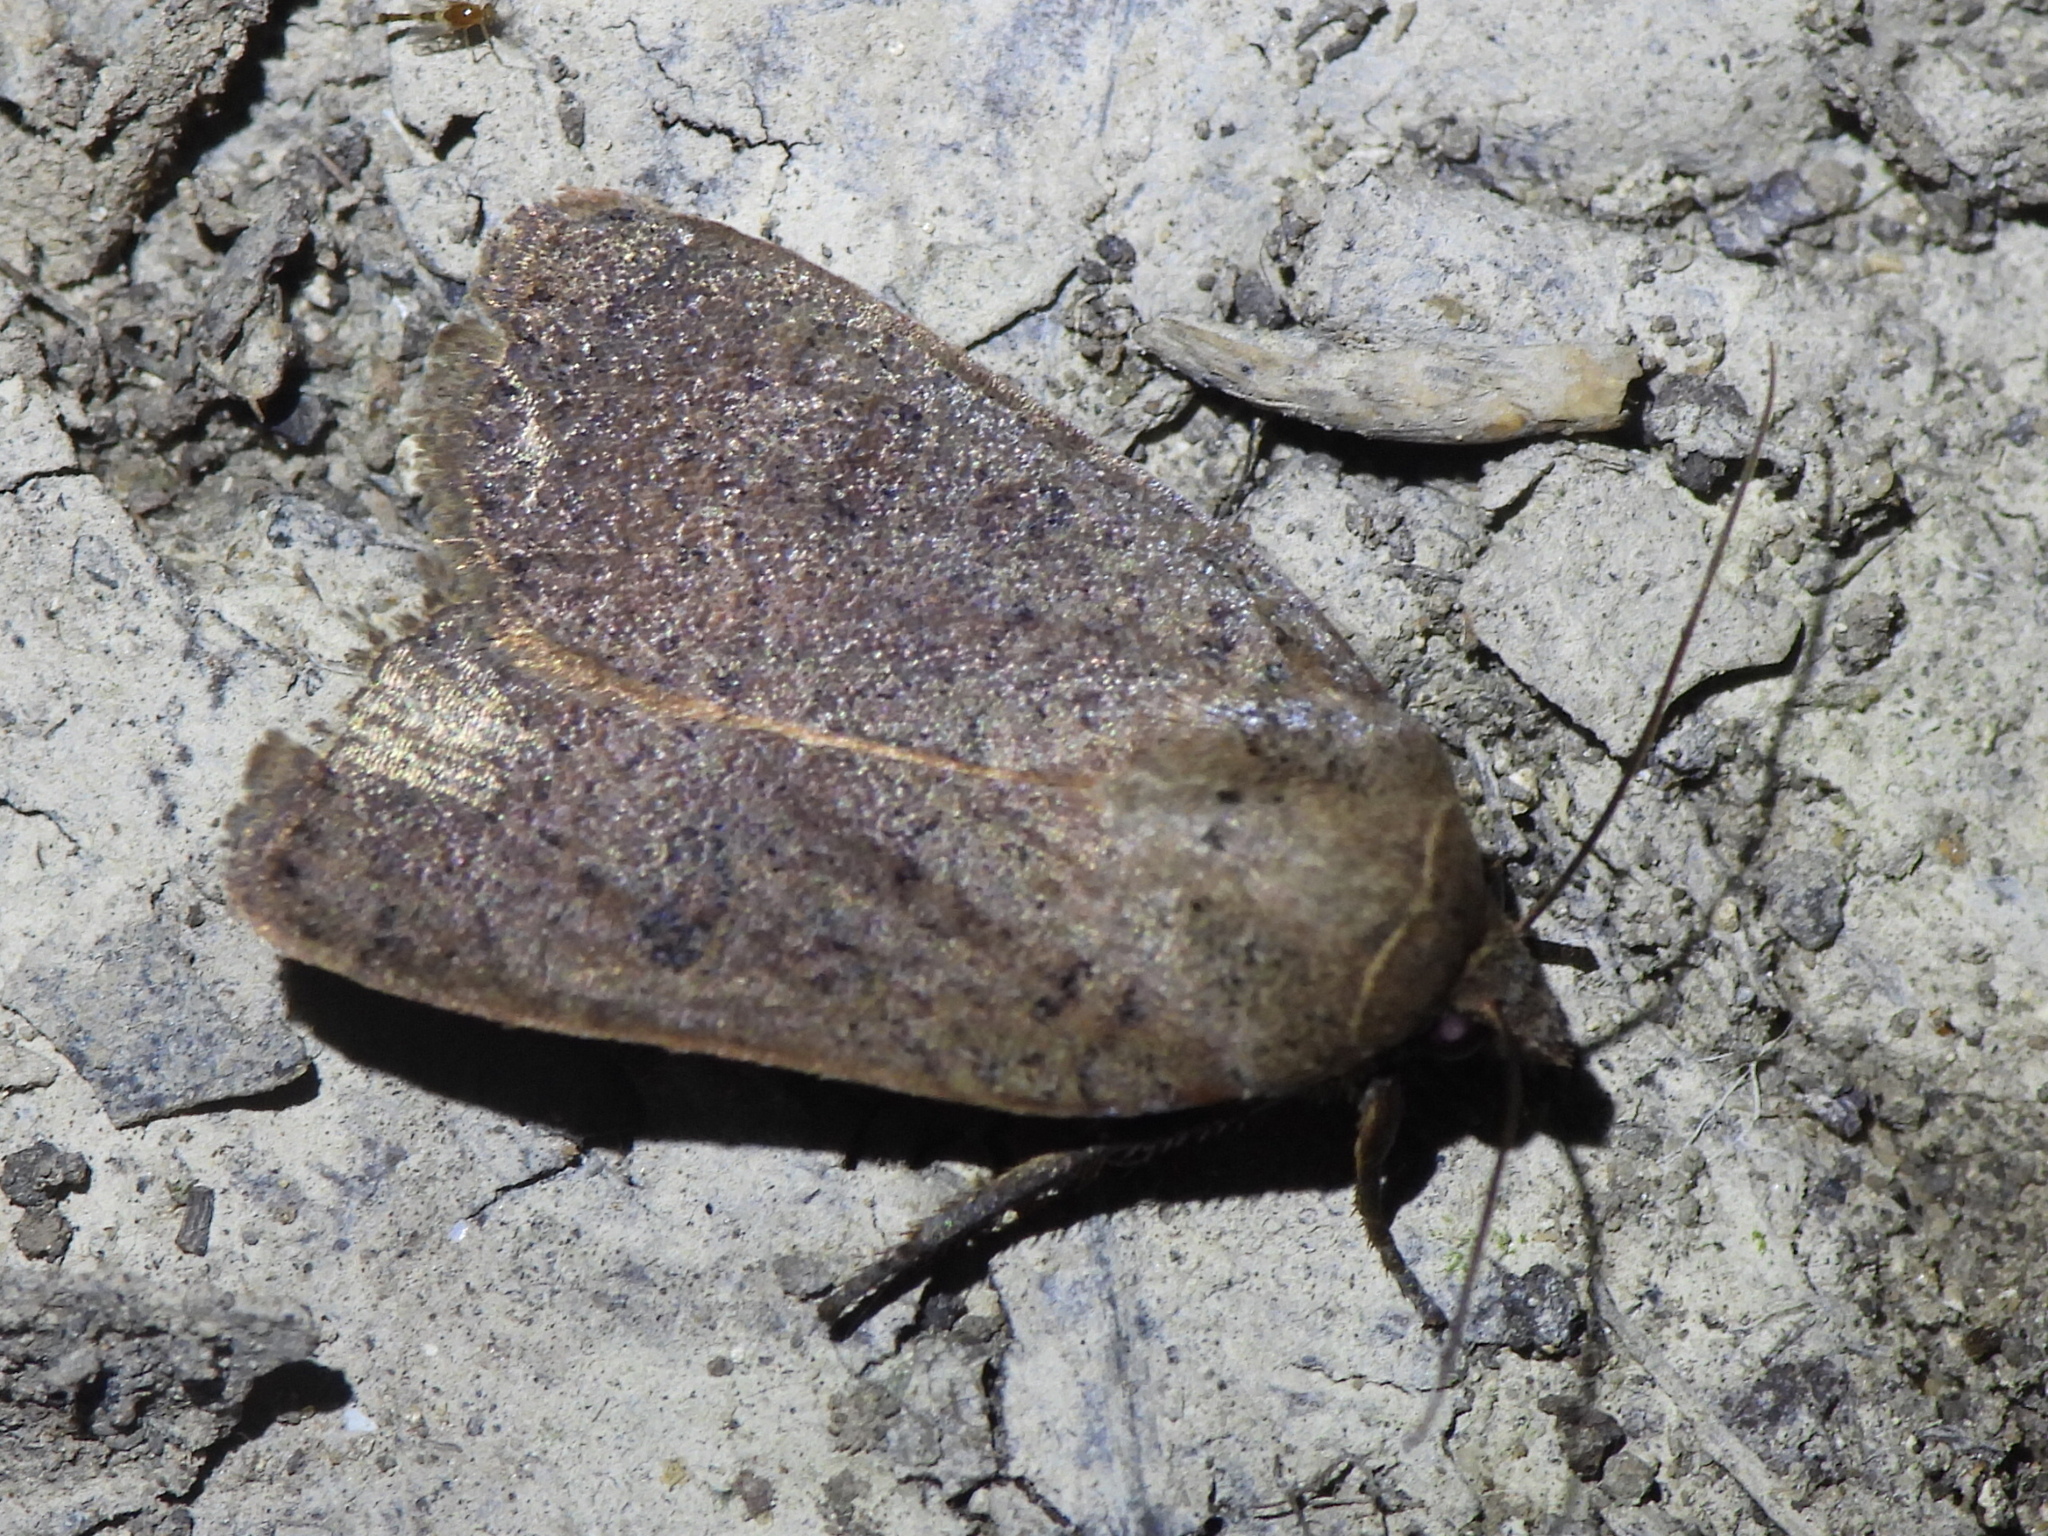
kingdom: Animalia
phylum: Arthropoda
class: Insecta
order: Lepidoptera
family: Noctuidae
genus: Sericaglaea
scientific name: Sericaglaea signata
